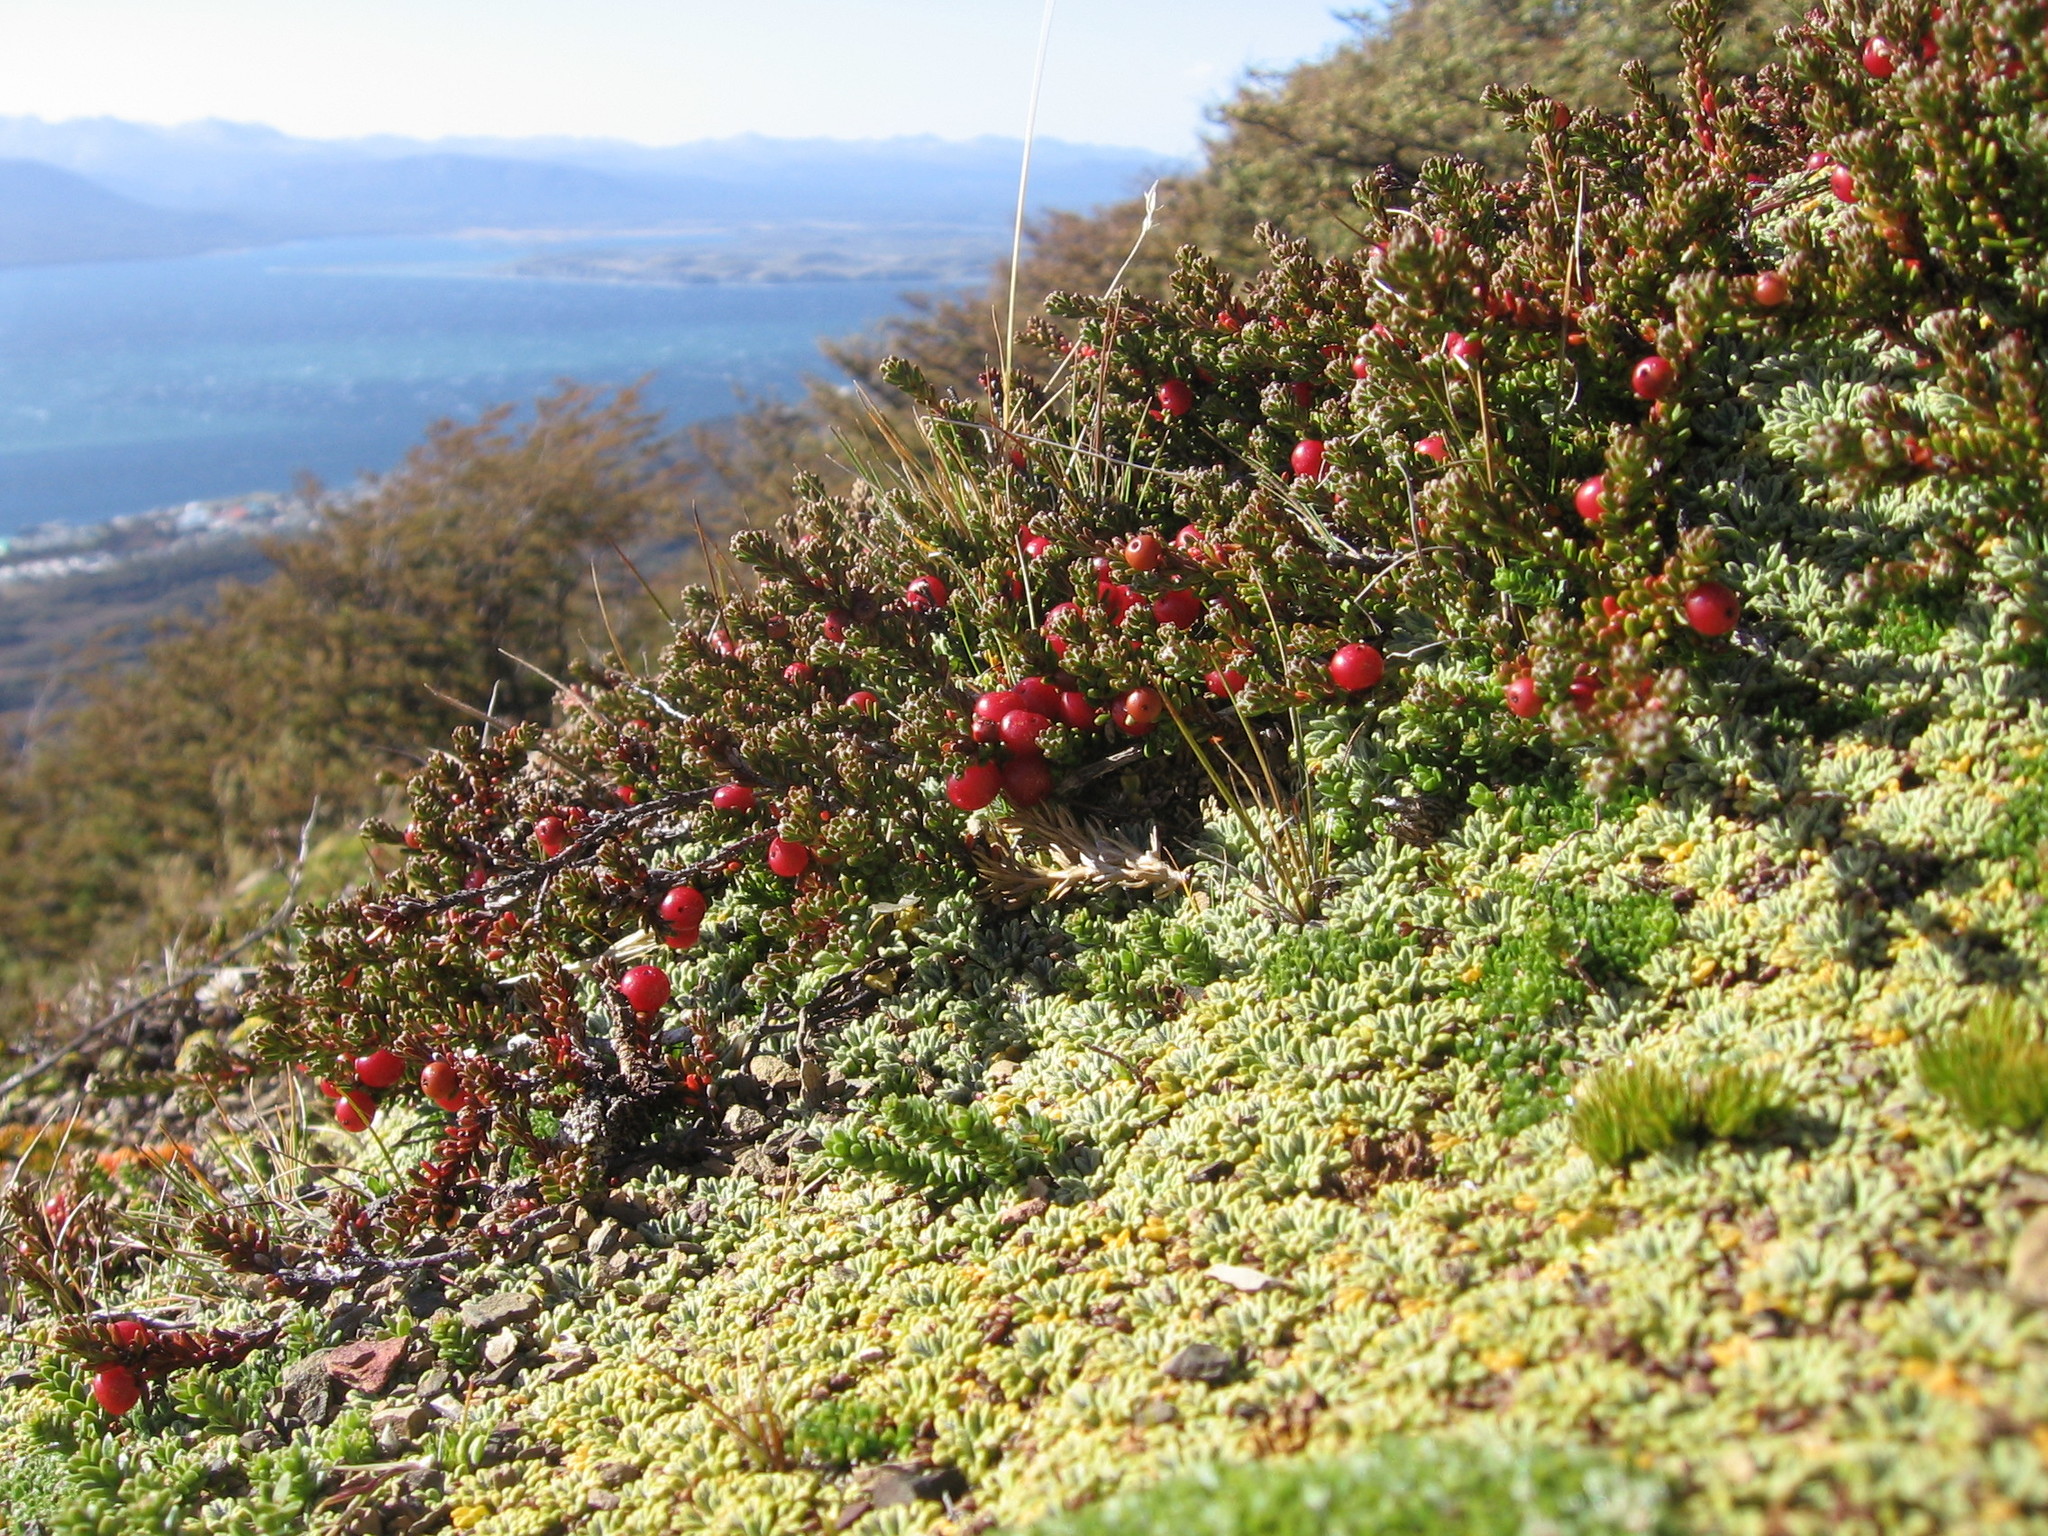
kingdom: Plantae
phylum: Tracheophyta
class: Magnoliopsida
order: Ericales
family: Ericaceae
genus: Empetrum
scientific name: Empetrum rubrum
